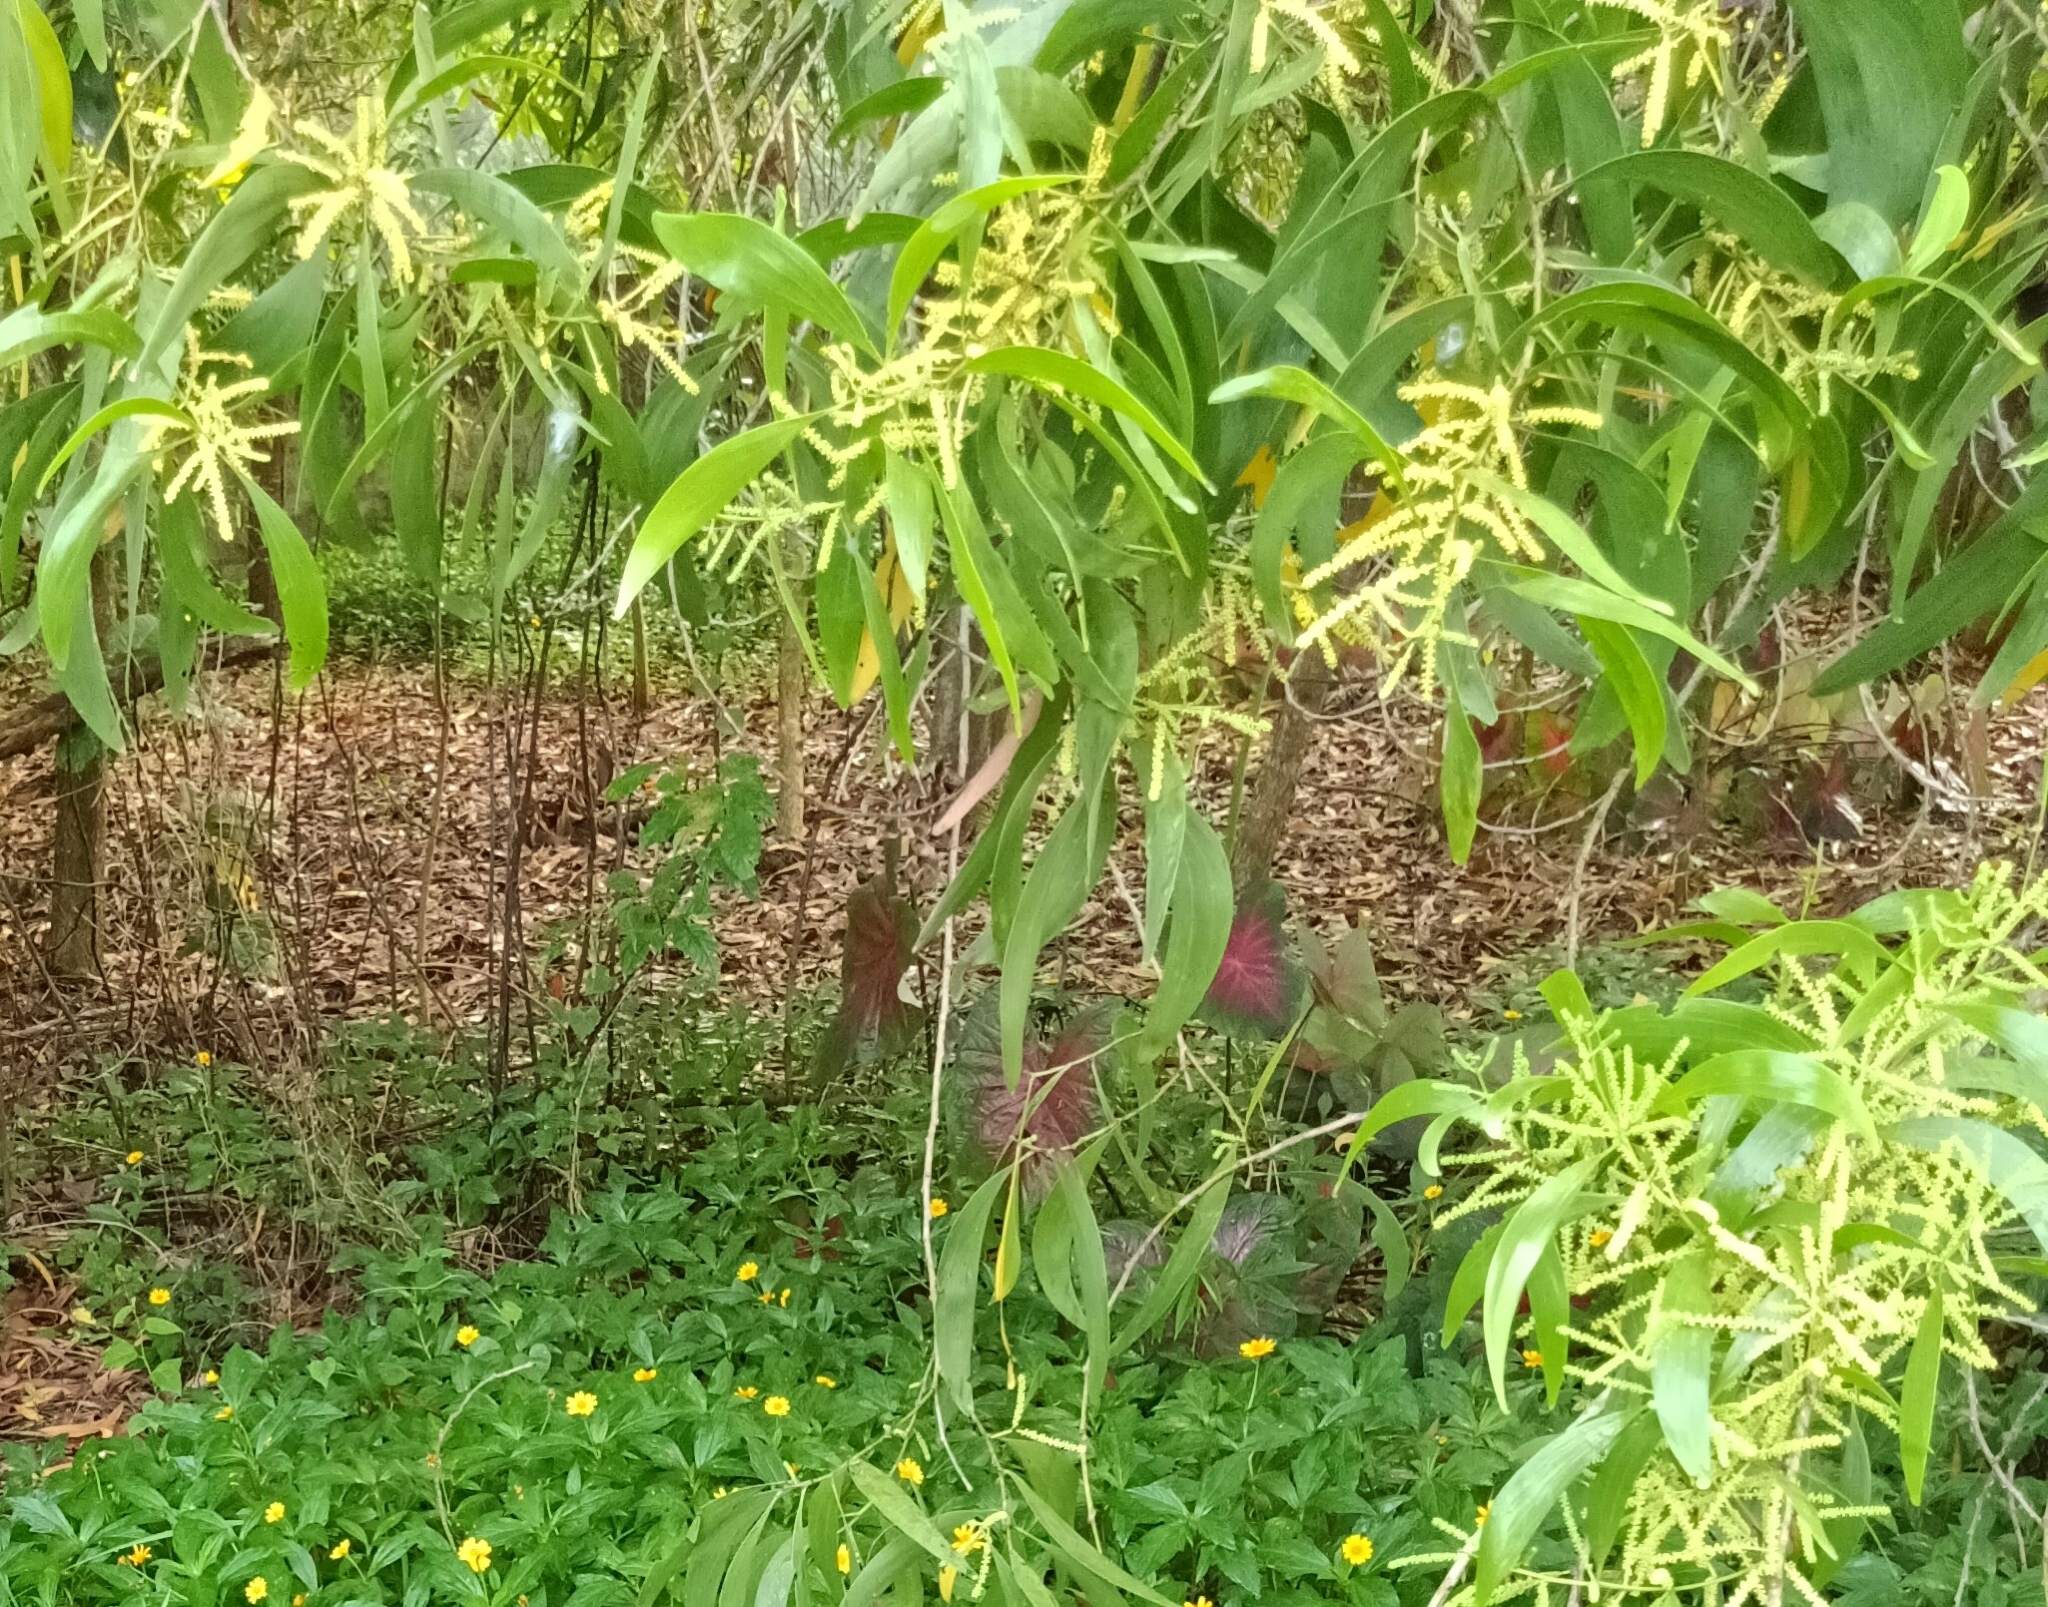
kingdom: Plantae
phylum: Tracheophyta
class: Magnoliopsida
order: Fabales
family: Fabaceae
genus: Acacia
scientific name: Acacia auriculiformis
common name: Earleaf acacia
